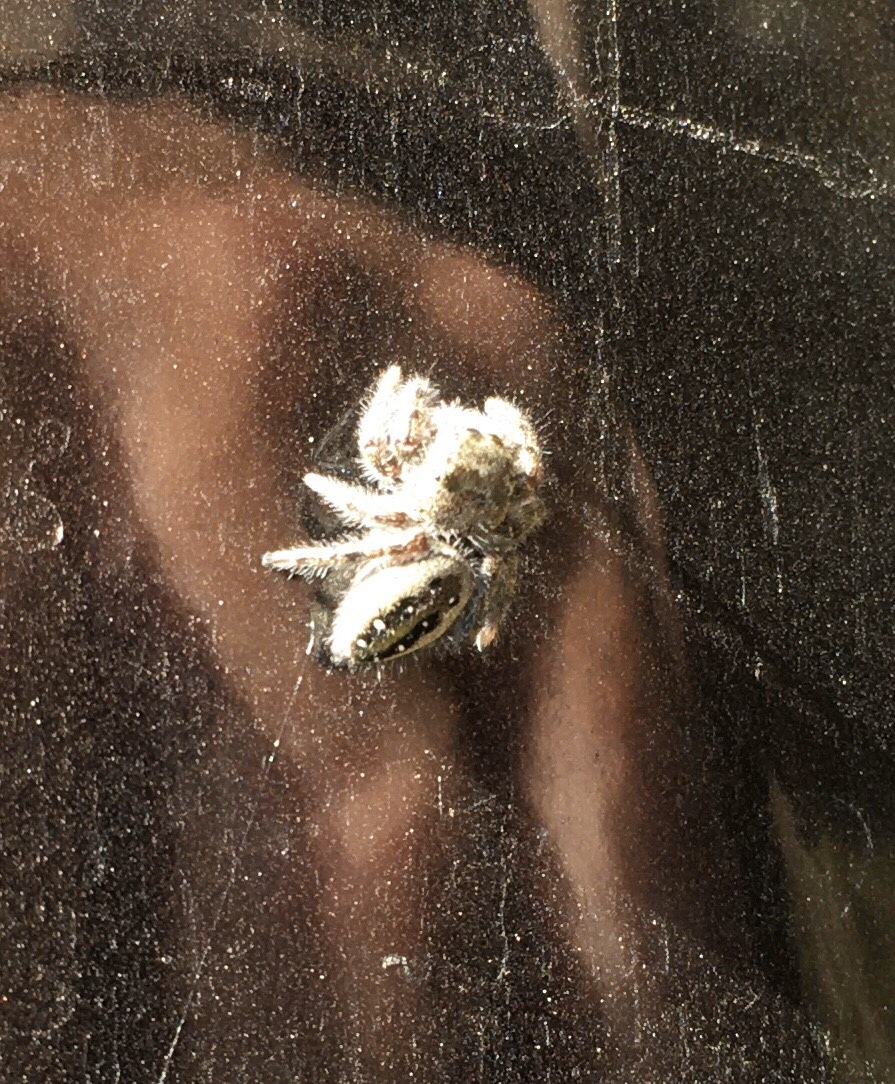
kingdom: Animalia
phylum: Arthropoda
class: Arachnida
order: Araneae
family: Salticidae
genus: Phidippus
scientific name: Phidippus purpuratus
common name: Marbled purple jumping spider
